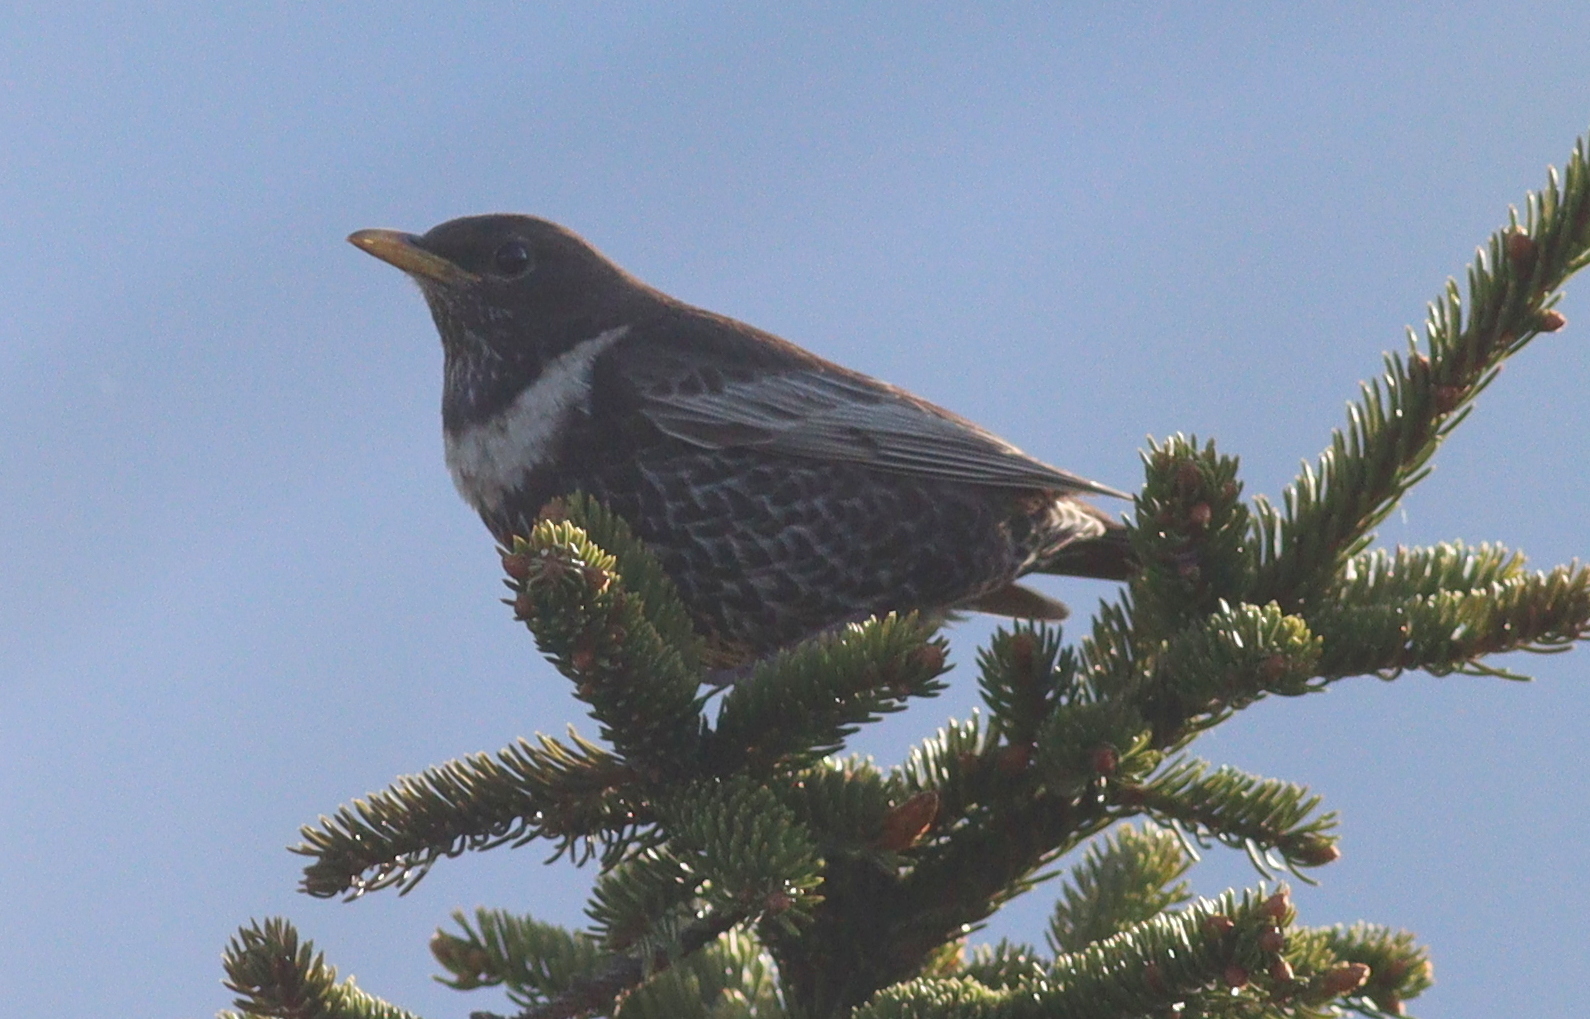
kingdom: Animalia
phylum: Chordata
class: Aves
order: Passeriformes
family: Turdidae
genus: Turdus
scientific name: Turdus torquatus
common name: Ring ouzel
